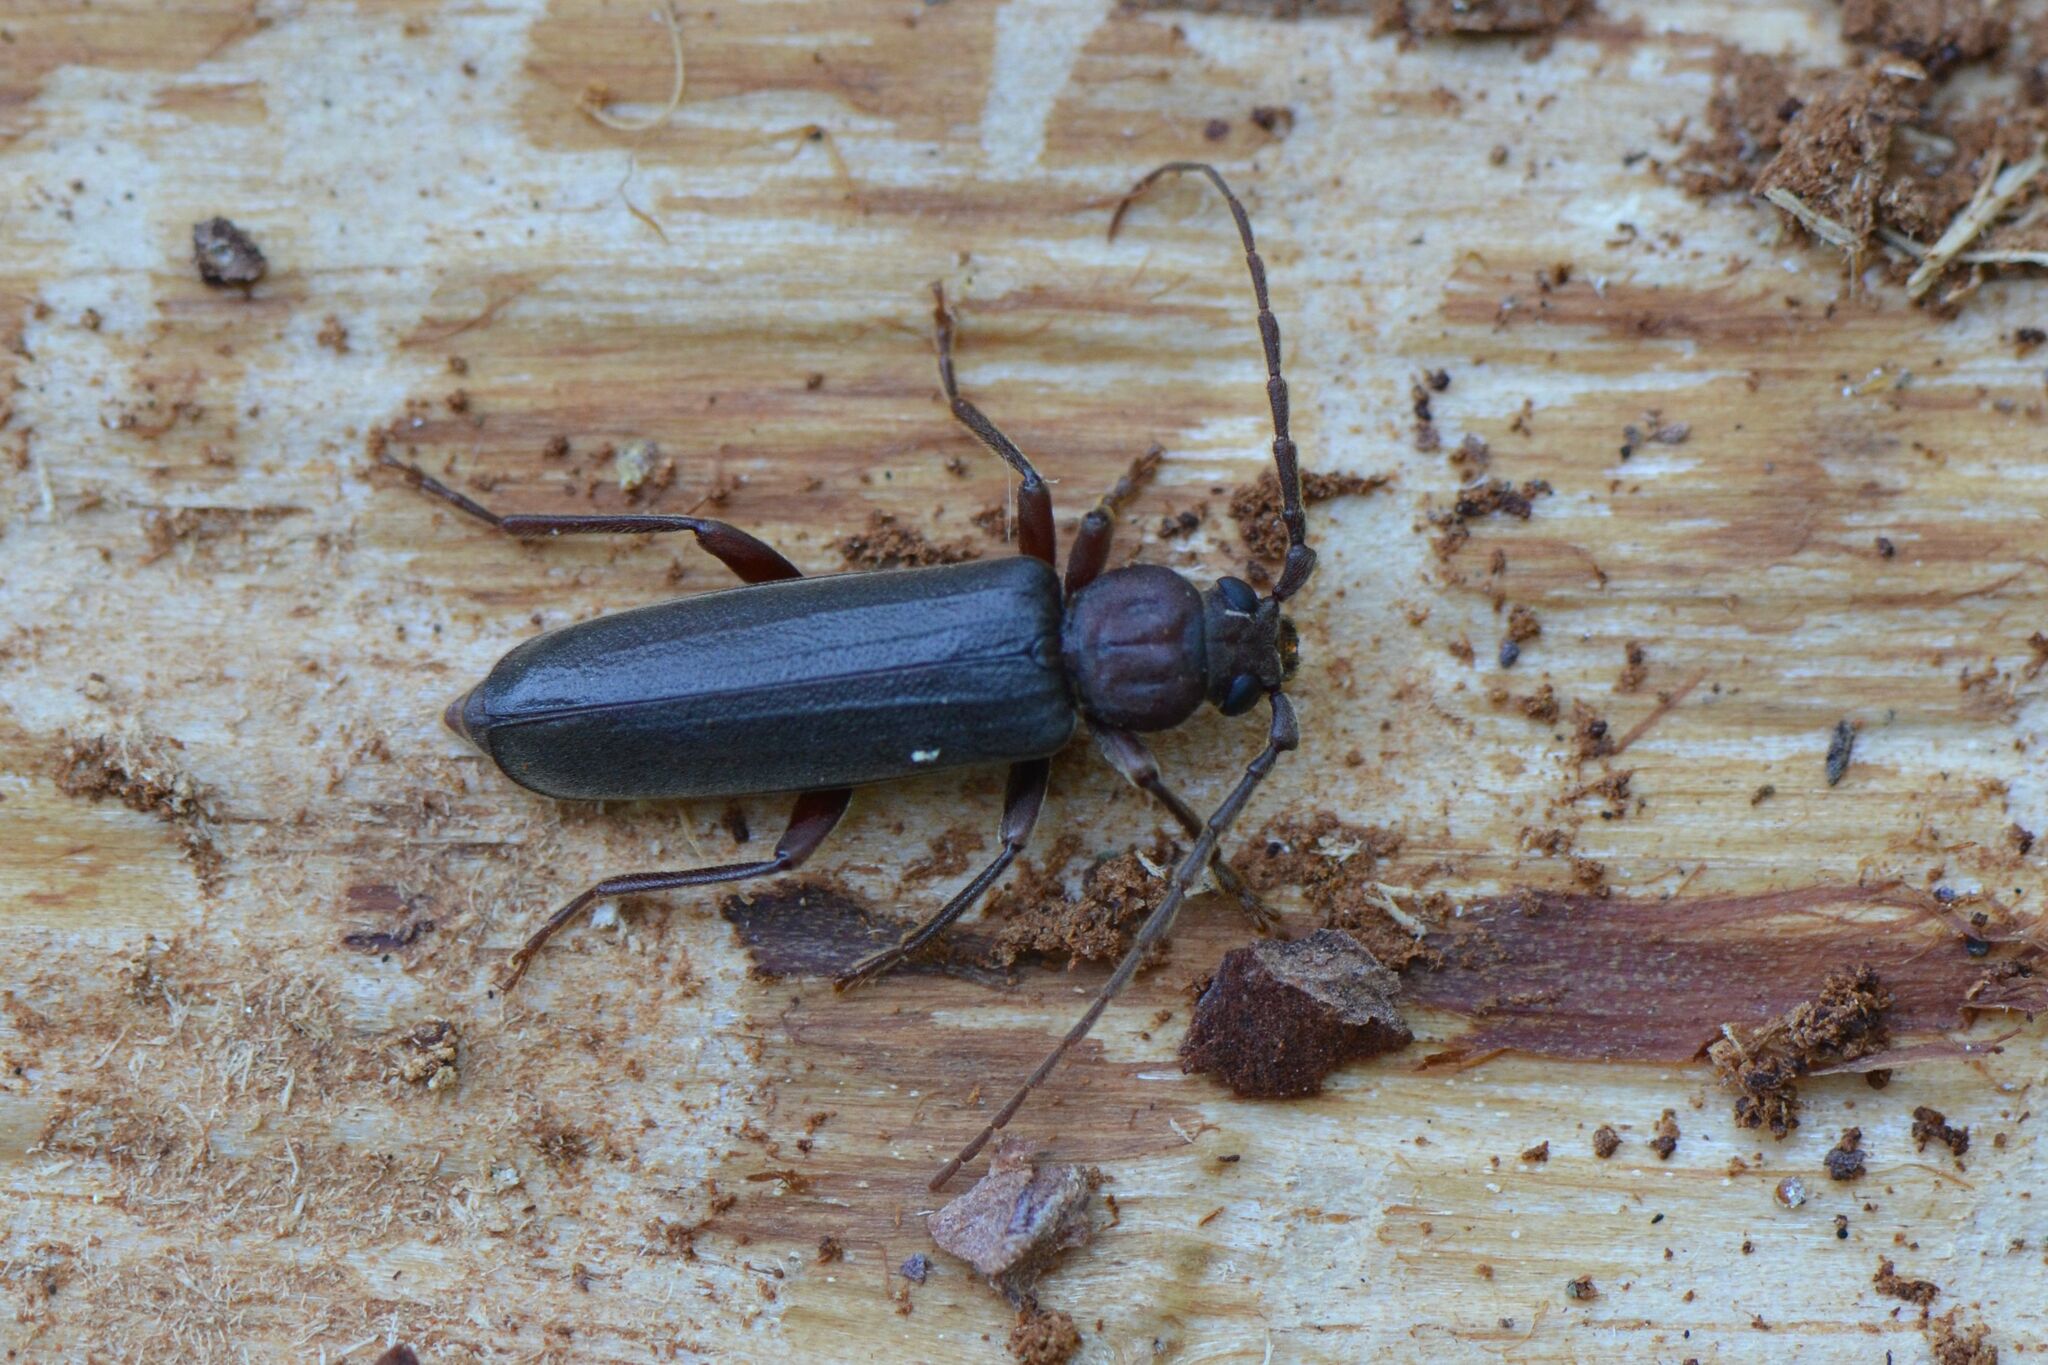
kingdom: Animalia
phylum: Arthropoda
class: Insecta
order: Coleoptera
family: Cerambycidae
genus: Arhopalus
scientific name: Arhopalus rusticus
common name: Rust pine borer
